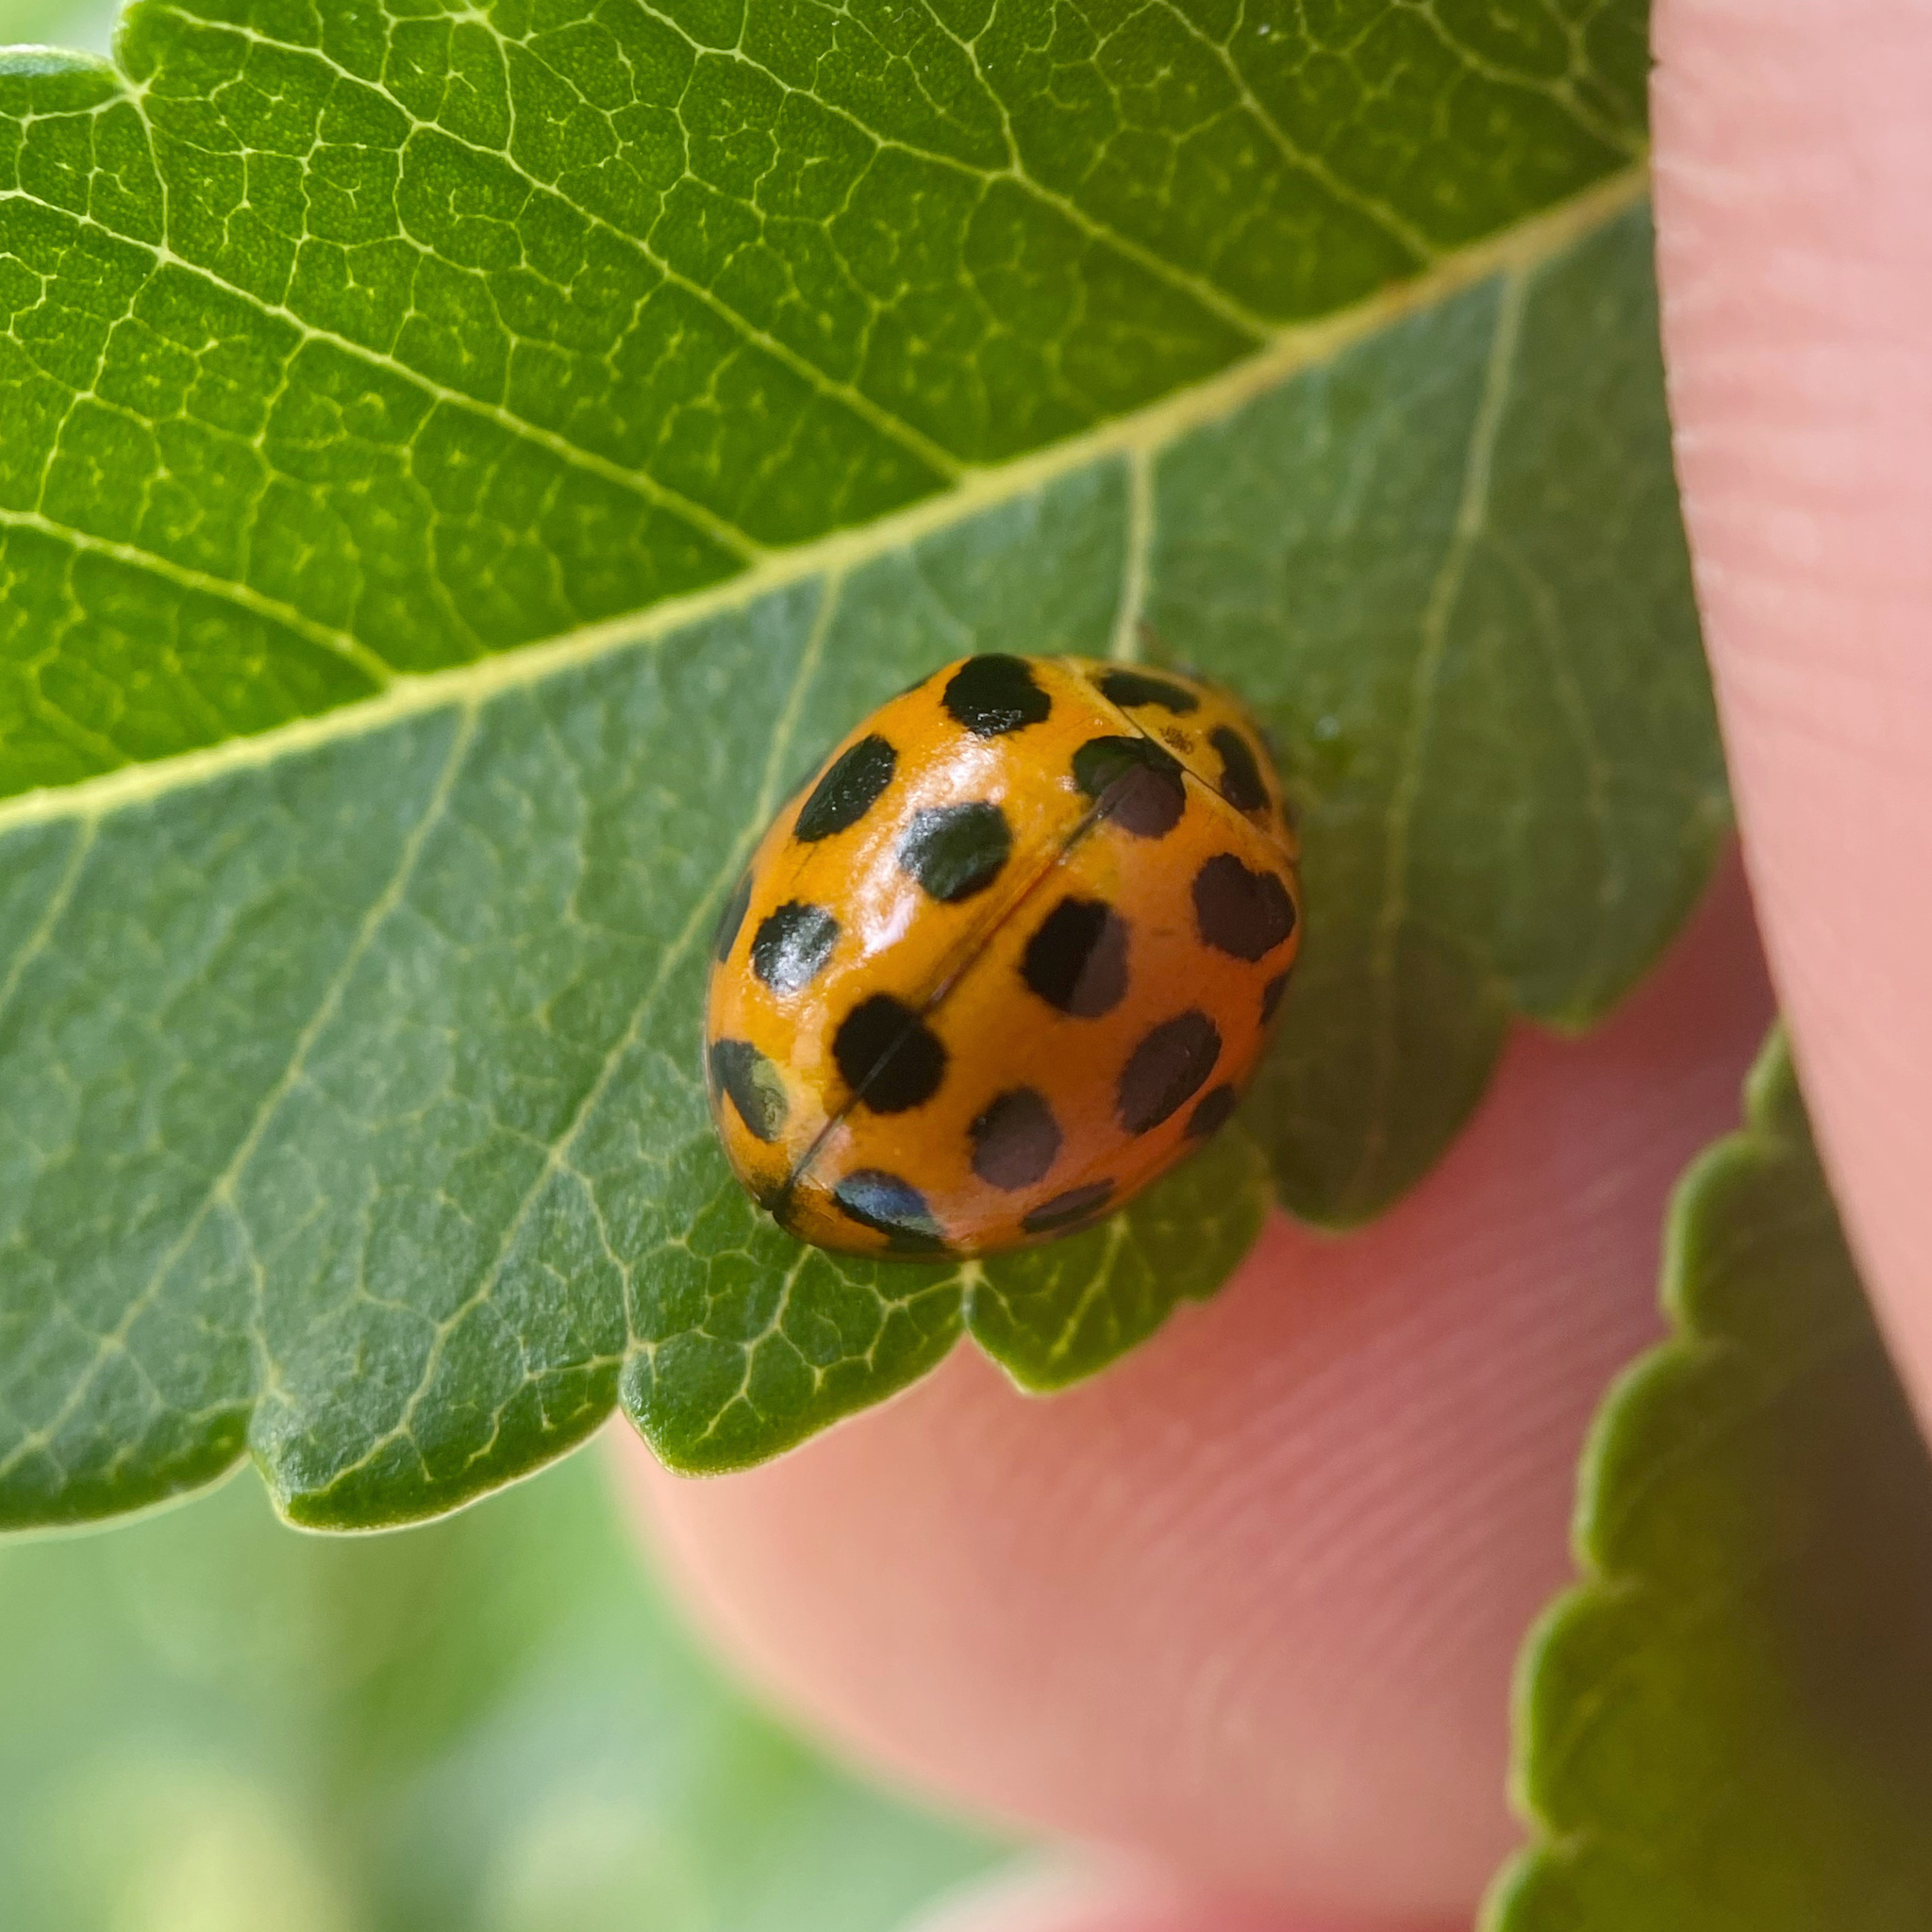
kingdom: Animalia
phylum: Arthropoda
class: Insecta
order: Coleoptera
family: Coccinellidae
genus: Harmonia
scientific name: Harmonia conformis
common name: Common spotted ladybird beetle
